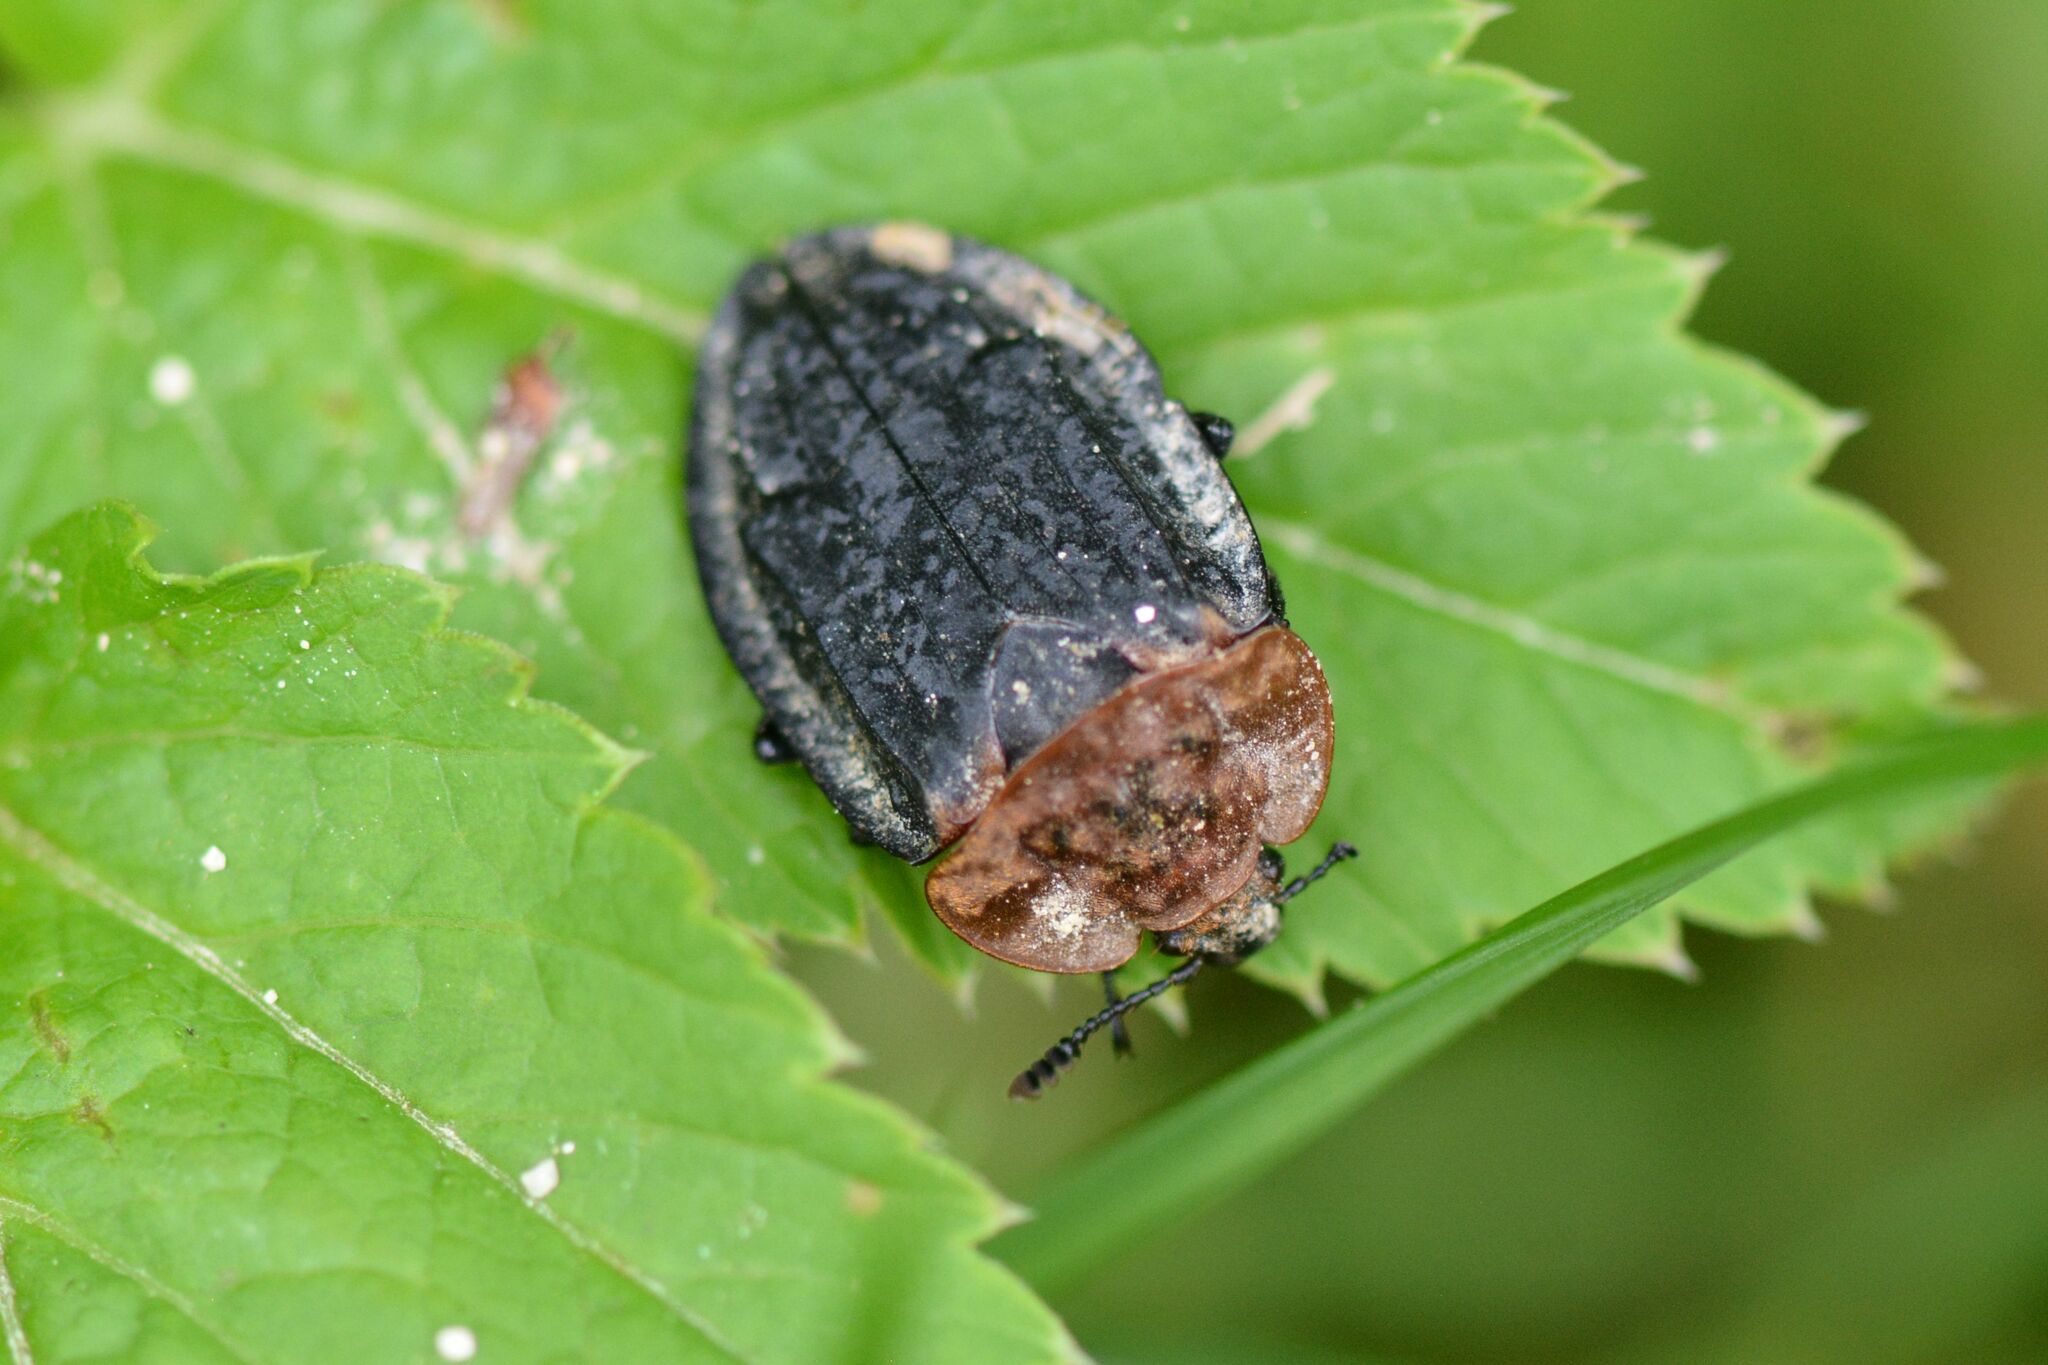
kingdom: Animalia
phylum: Arthropoda
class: Insecta
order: Coleoptera
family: Staphylinidae
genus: Oiceoptoma
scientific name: Oiceoptoma thoracicum
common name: Red-breasted carrion beetle
